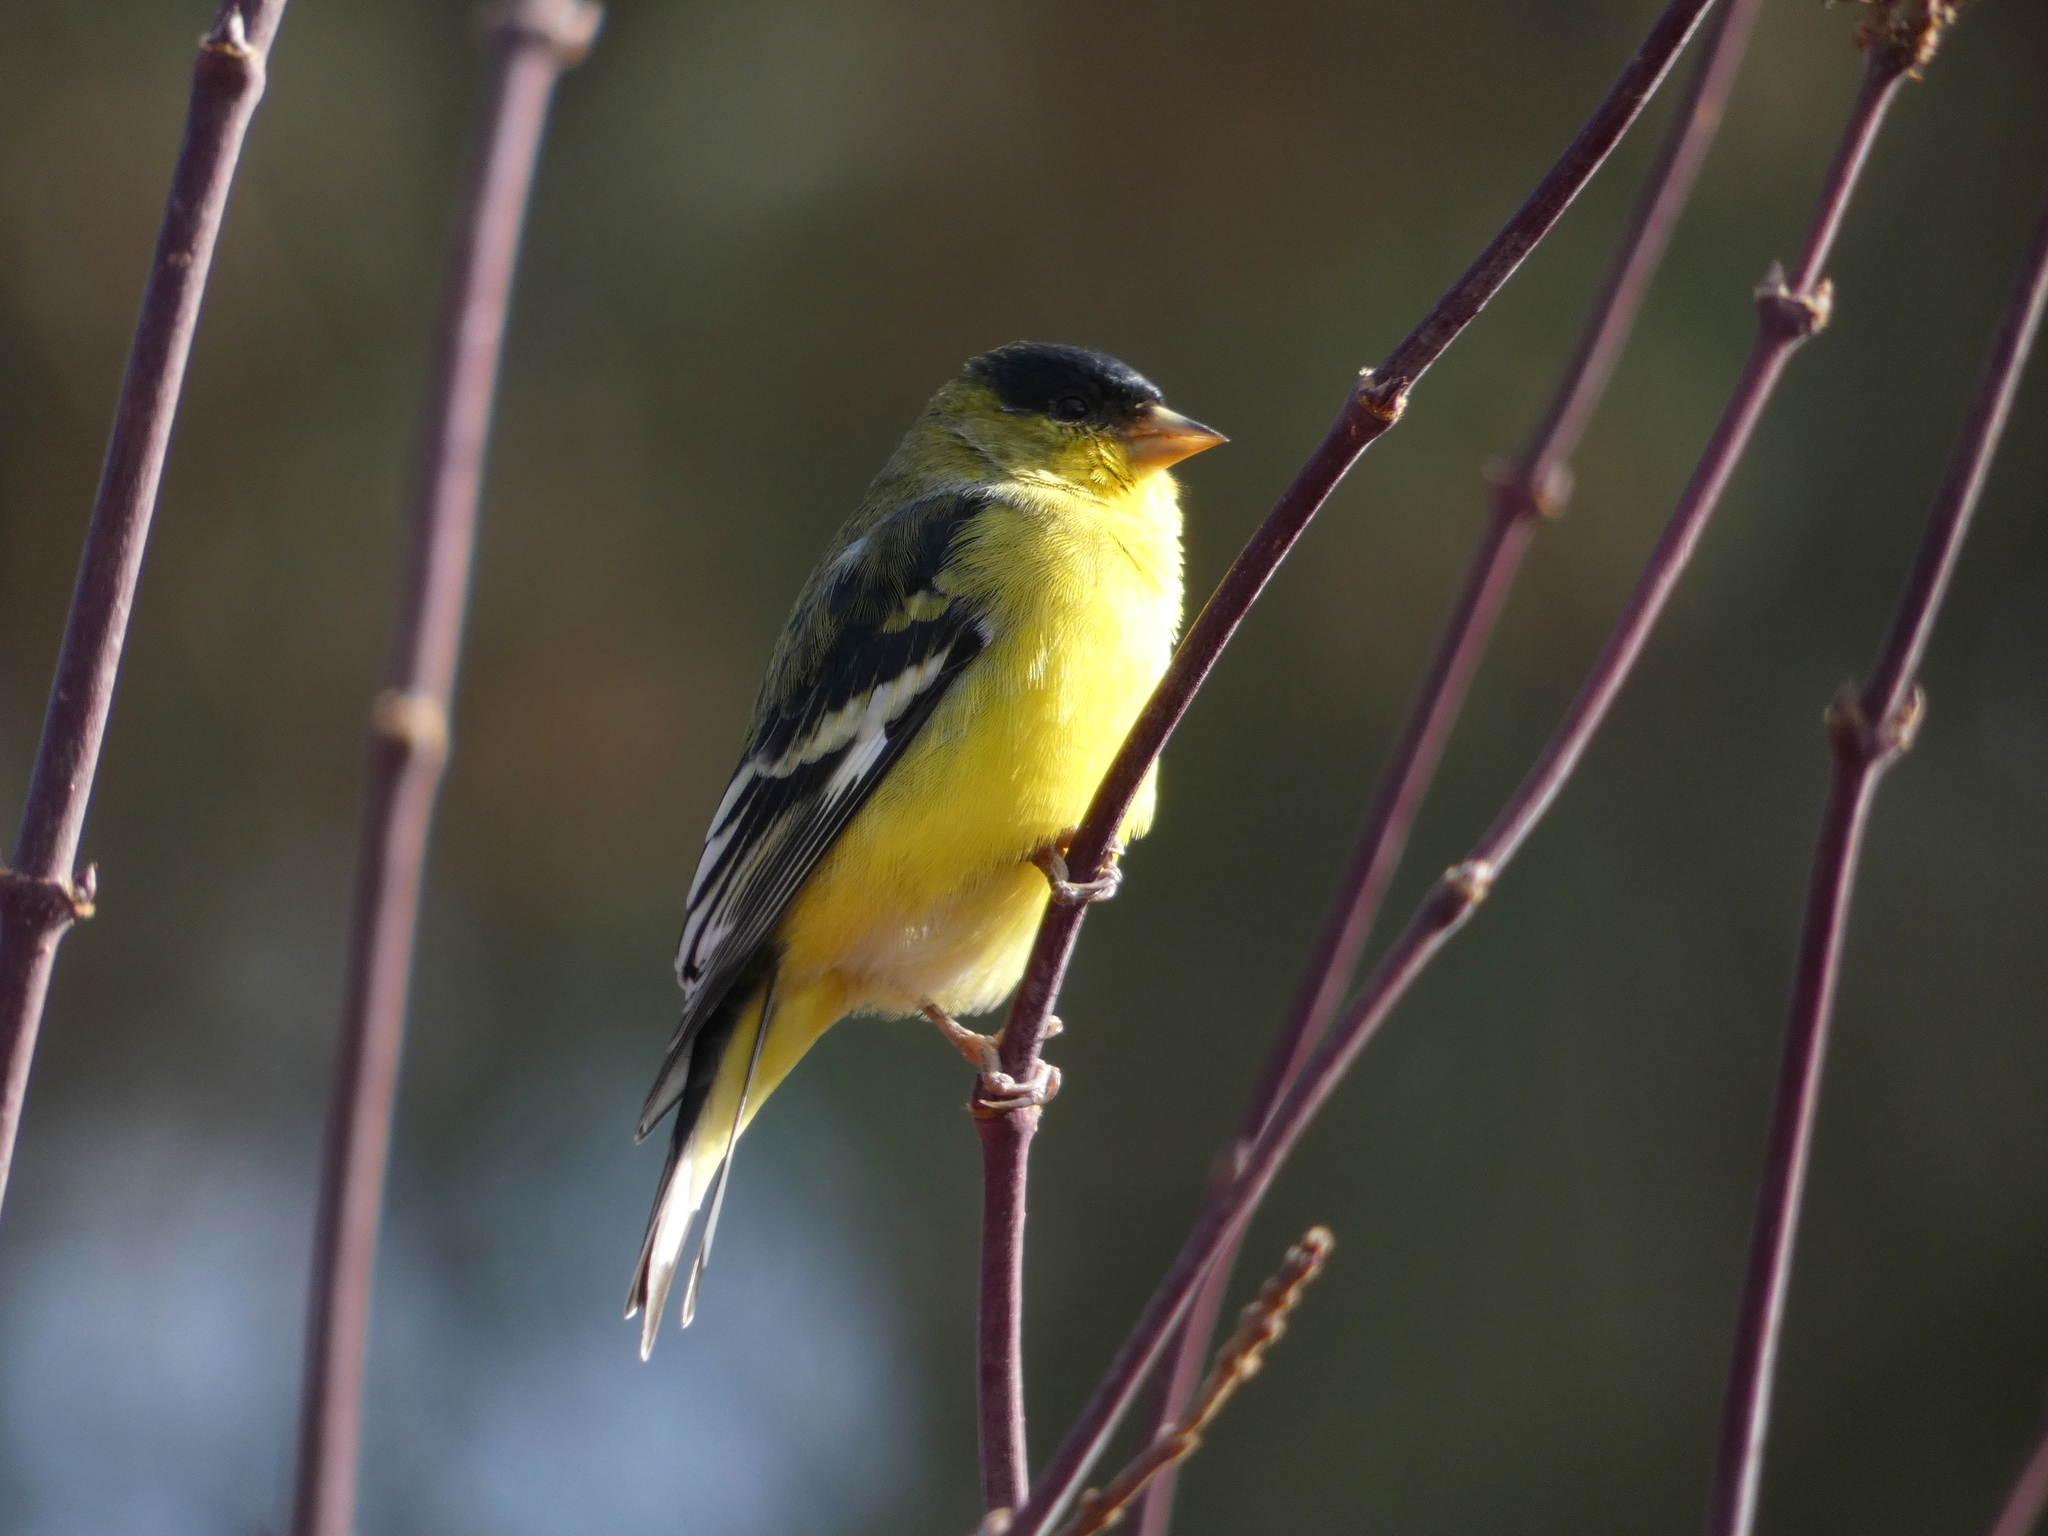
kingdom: Animalia
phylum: Chordata
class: Aves
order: Passeriformes
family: Fringillidae
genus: Spinus
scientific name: Spinus psaltria
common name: Lesser goldfinch
